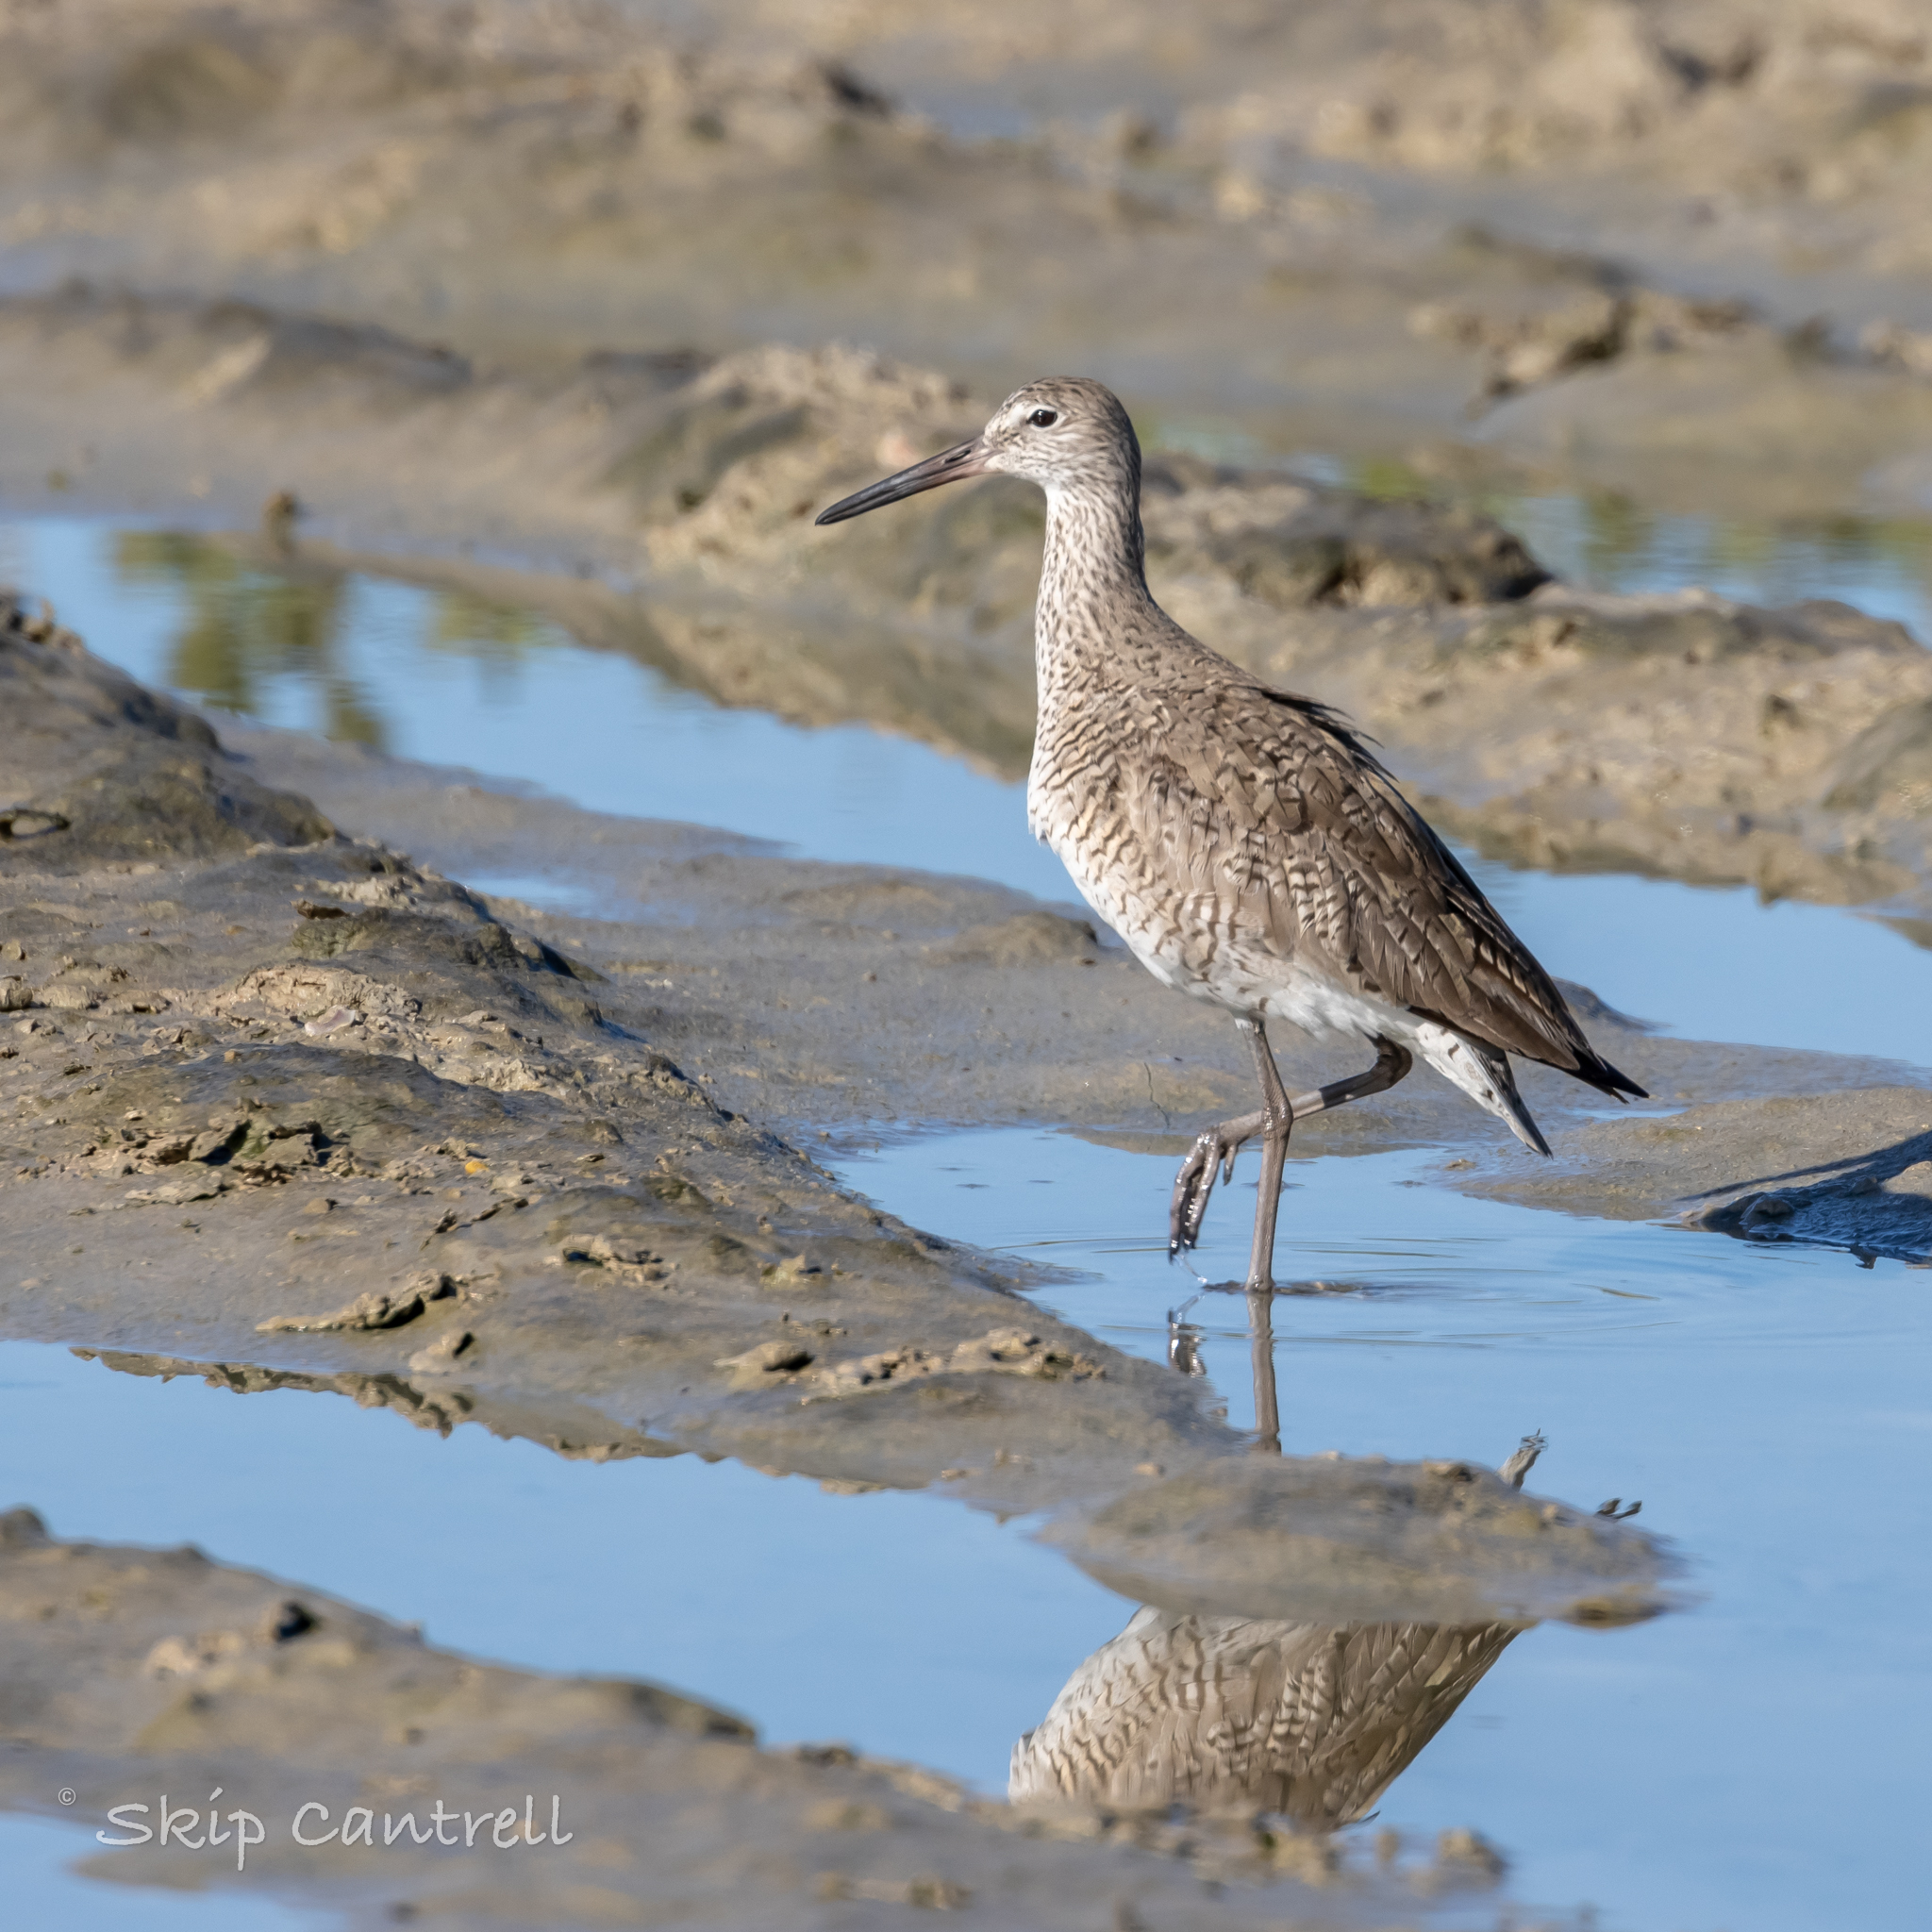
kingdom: Animalia
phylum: Chordata
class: Aves
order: Charadriiformes
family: Scolopacidae
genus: Tringa
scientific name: Tringa semipalmata
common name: Willet
